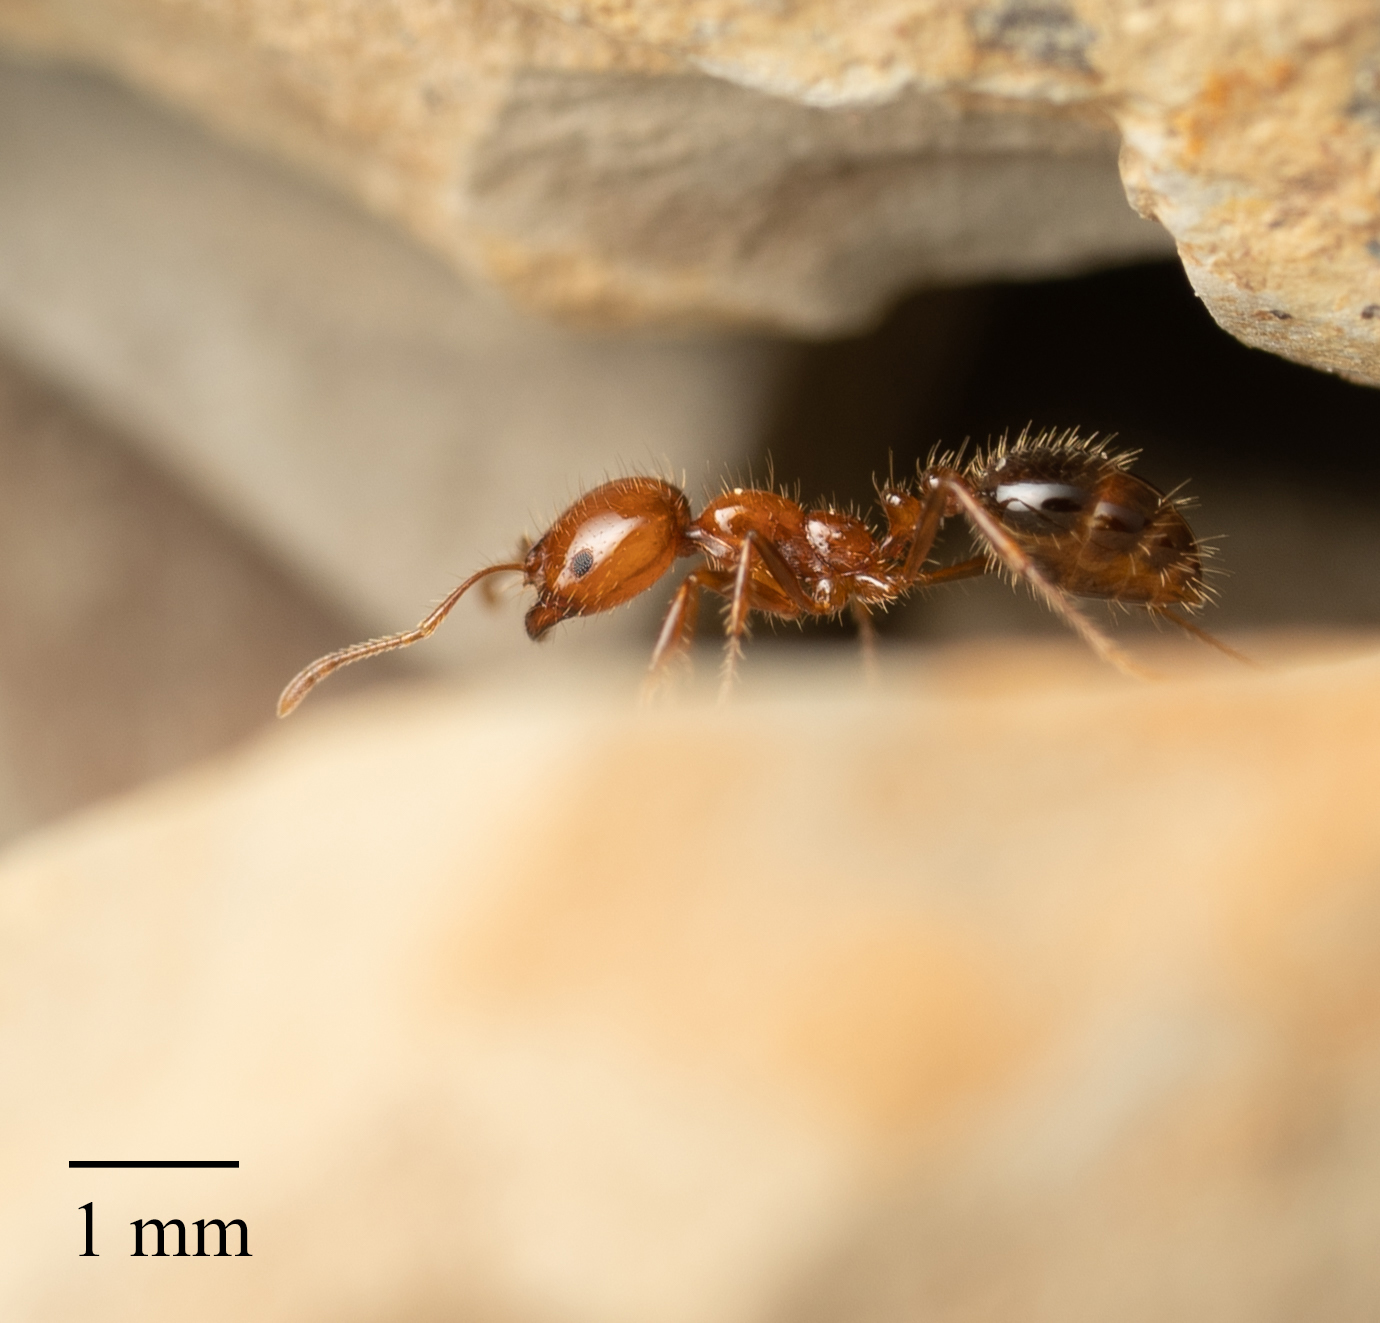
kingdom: Animalia
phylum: Arthropoda
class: Insecta
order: Hymenoptera
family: Formicidae
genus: Solenopsis
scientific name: Solenopsis xyloni
